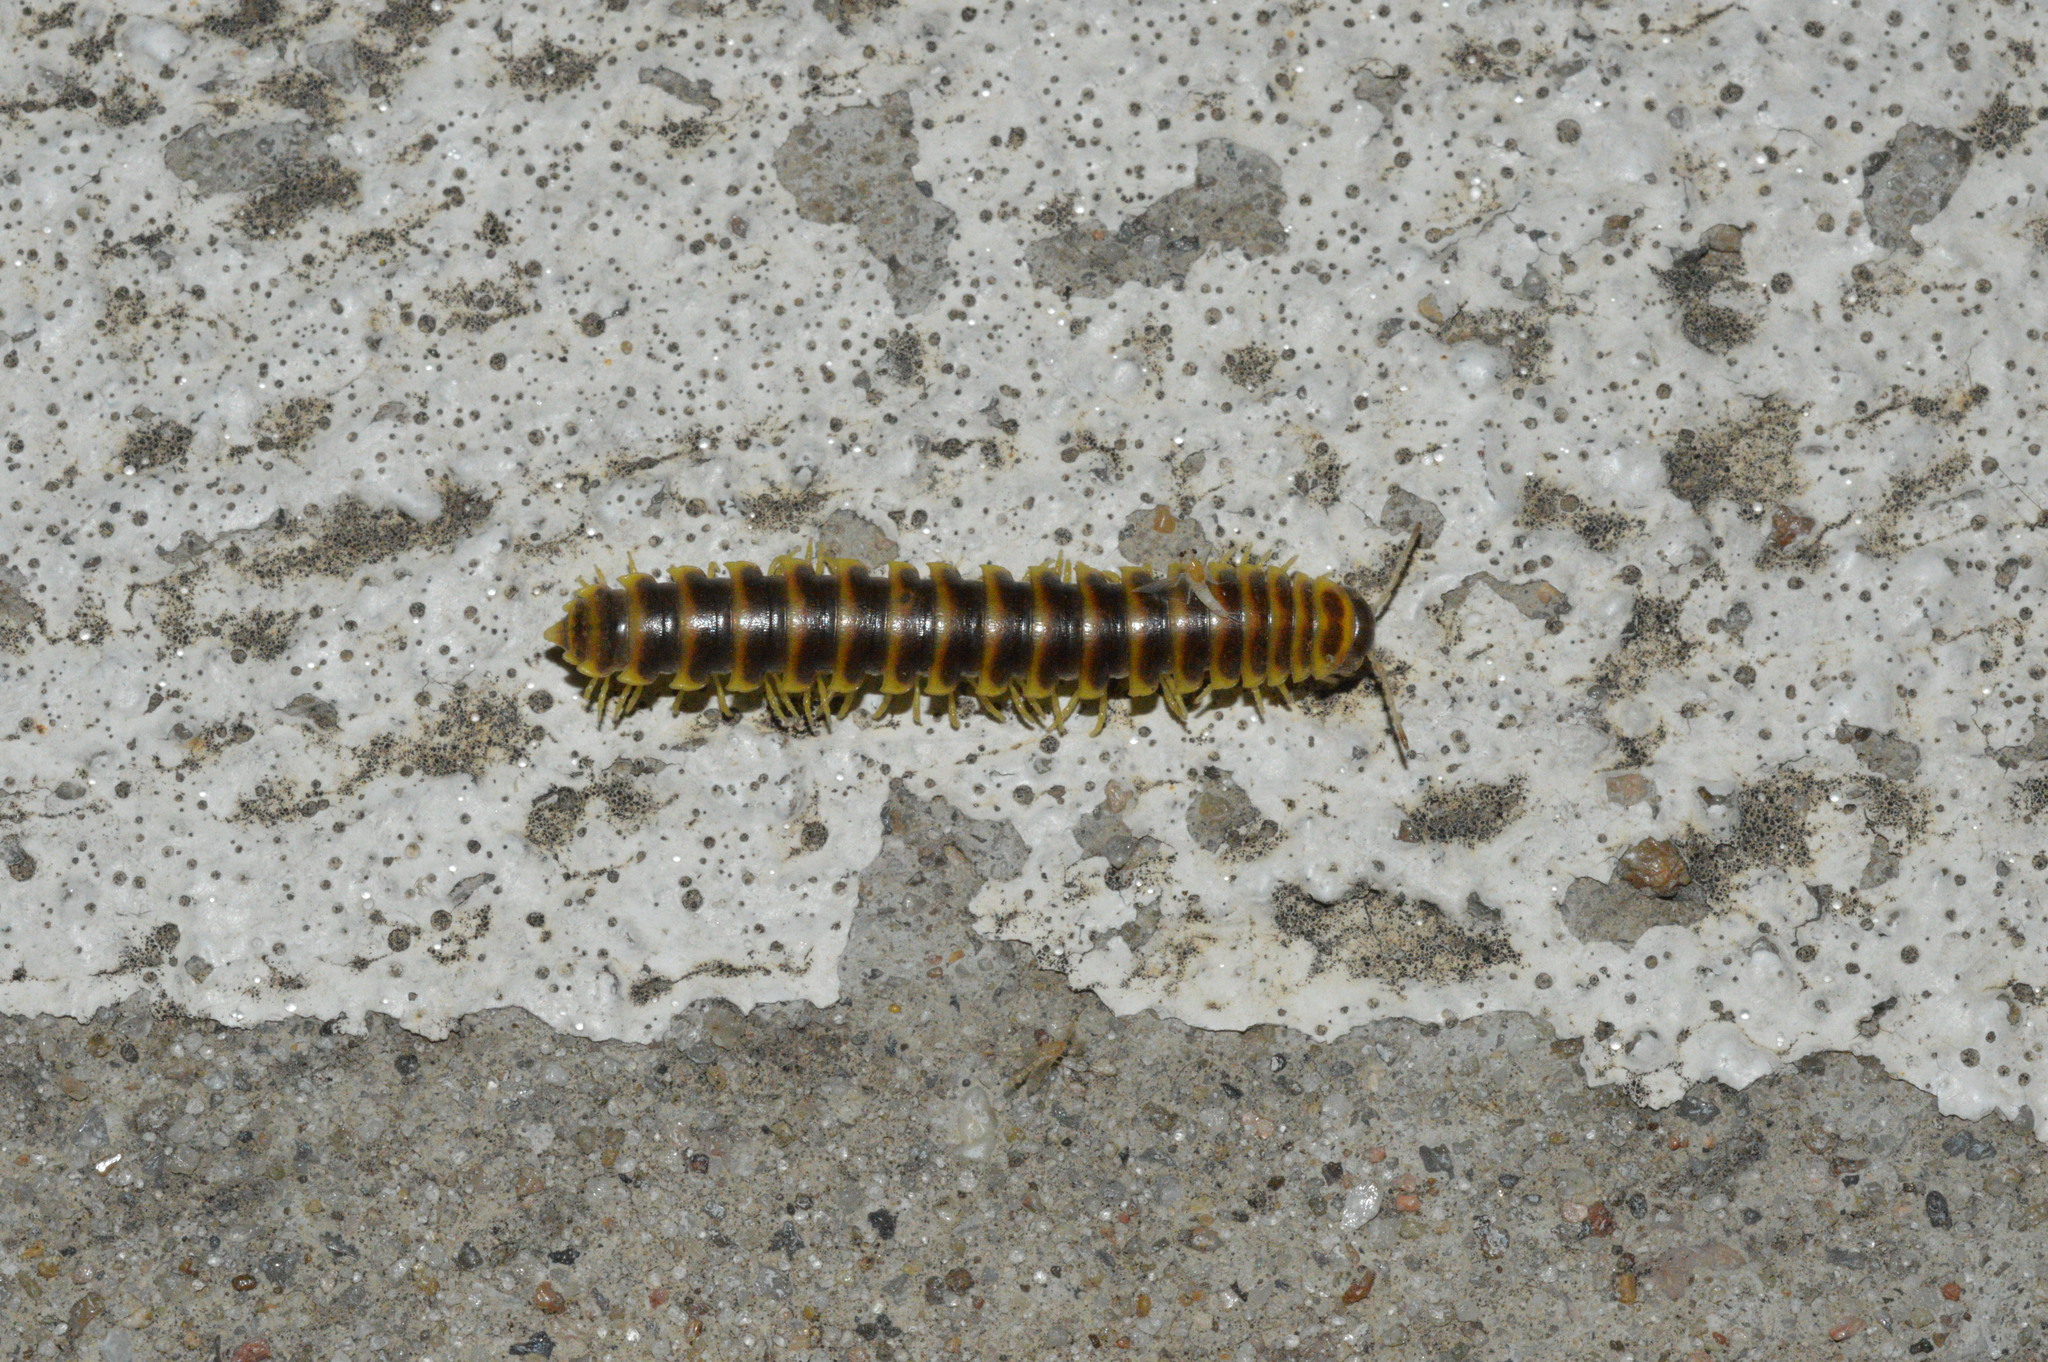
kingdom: Animalia
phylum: Arthropoda
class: Diplopoda
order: Polydesmida
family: Xystodesmidae
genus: Pleuroloma
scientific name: Pleuroloma flavipes
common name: Yellow-legged pleuroloma
